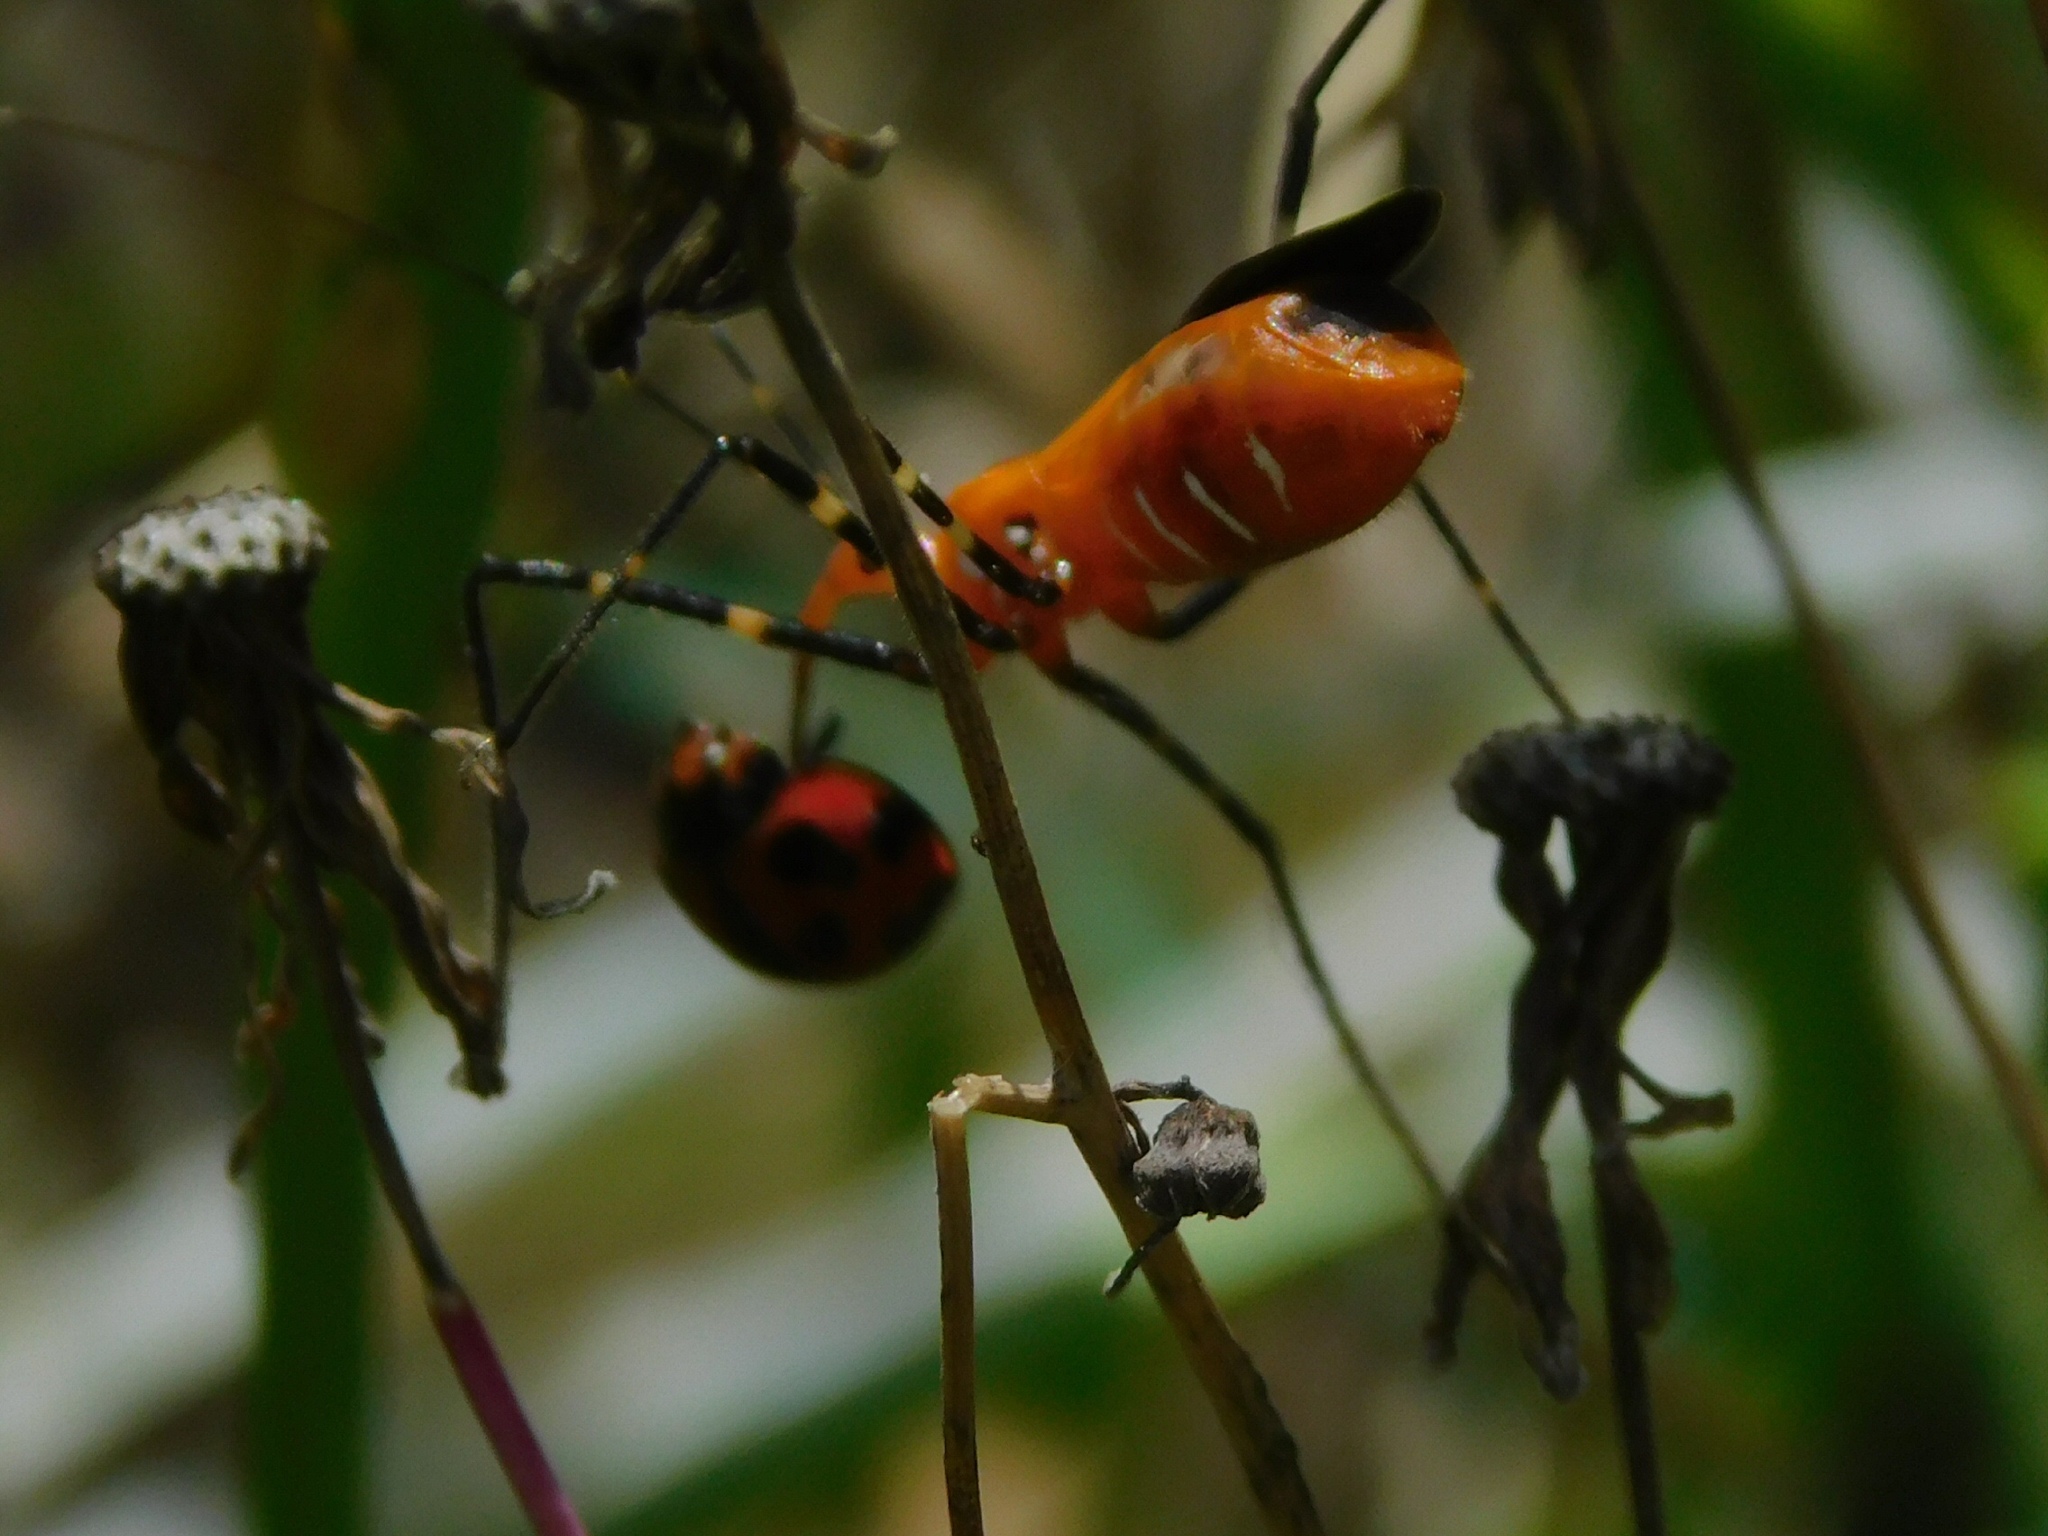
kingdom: Animalia
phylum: Arthropoda
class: Insecta
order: Coleoptera
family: Coccinellidae
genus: Coelophora
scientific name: Coelophora inaequalis
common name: Common australian lady beetle
